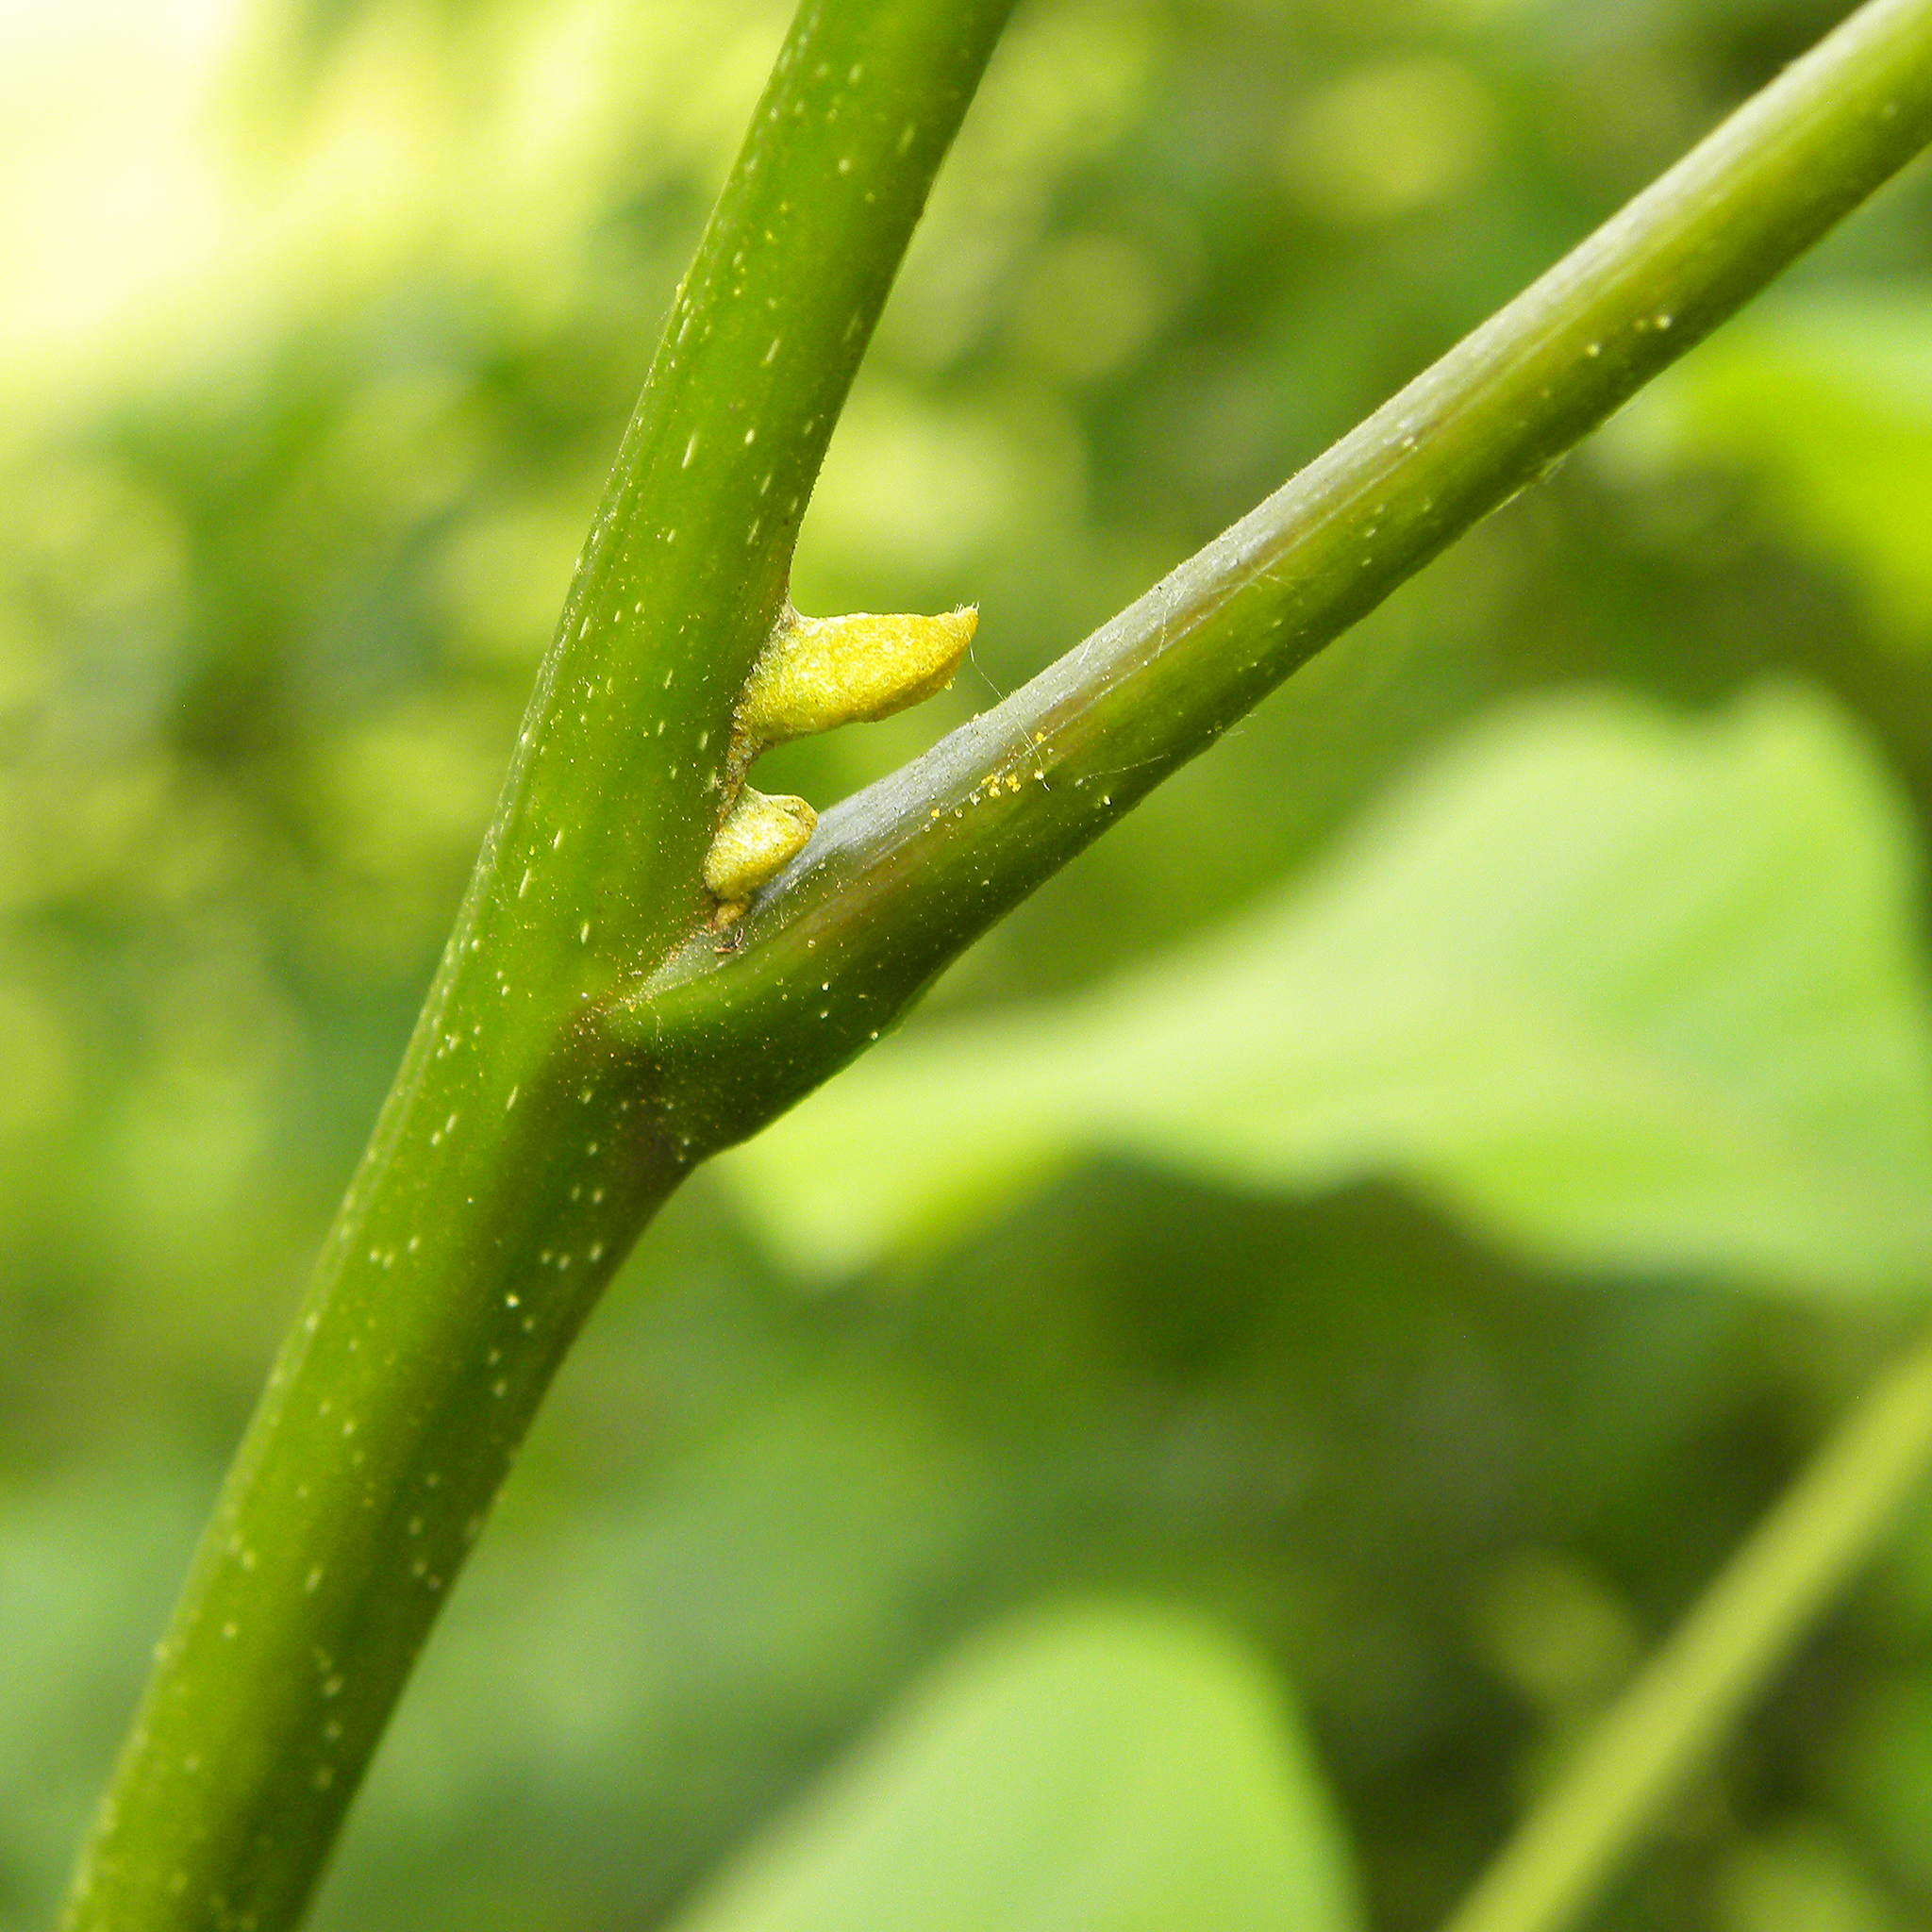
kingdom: Plantae
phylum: Tracheophyta
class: Magnoliopsida
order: Fagales
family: Juglandaceae
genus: Carya
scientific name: Carya cordiformis
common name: Bitternut hickory
